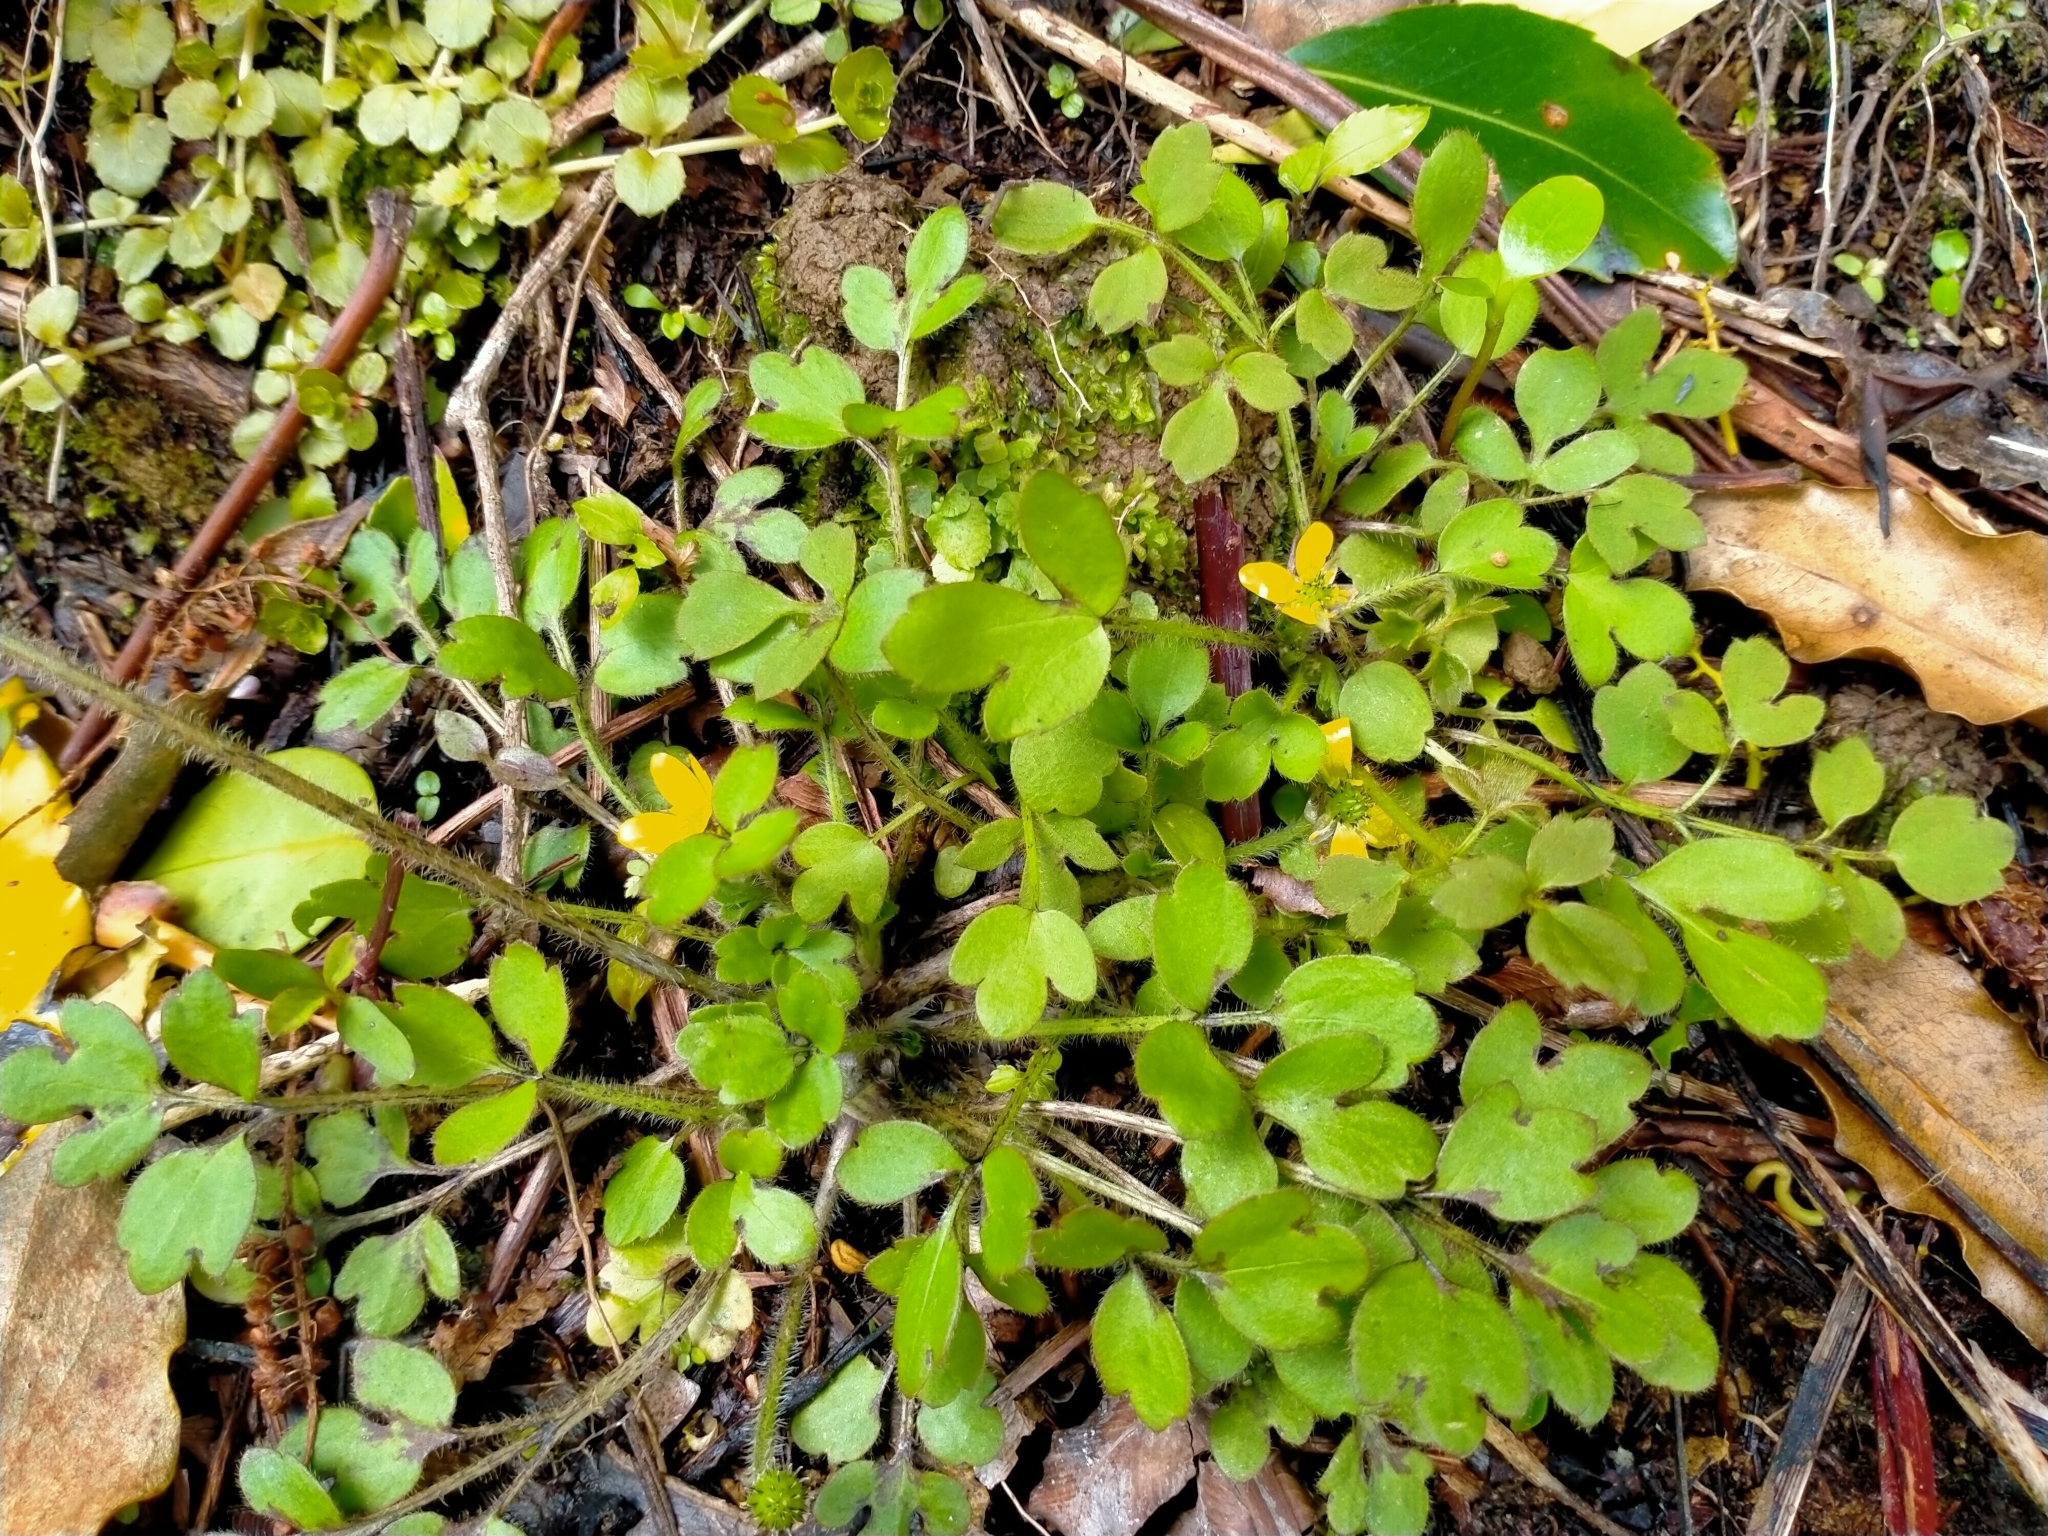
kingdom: Plantae
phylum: Tracheophyta
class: Magnoliopsida
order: Ranunculales
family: Ranunculaceae
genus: Ranunculus
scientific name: Ranunculus reflexus
